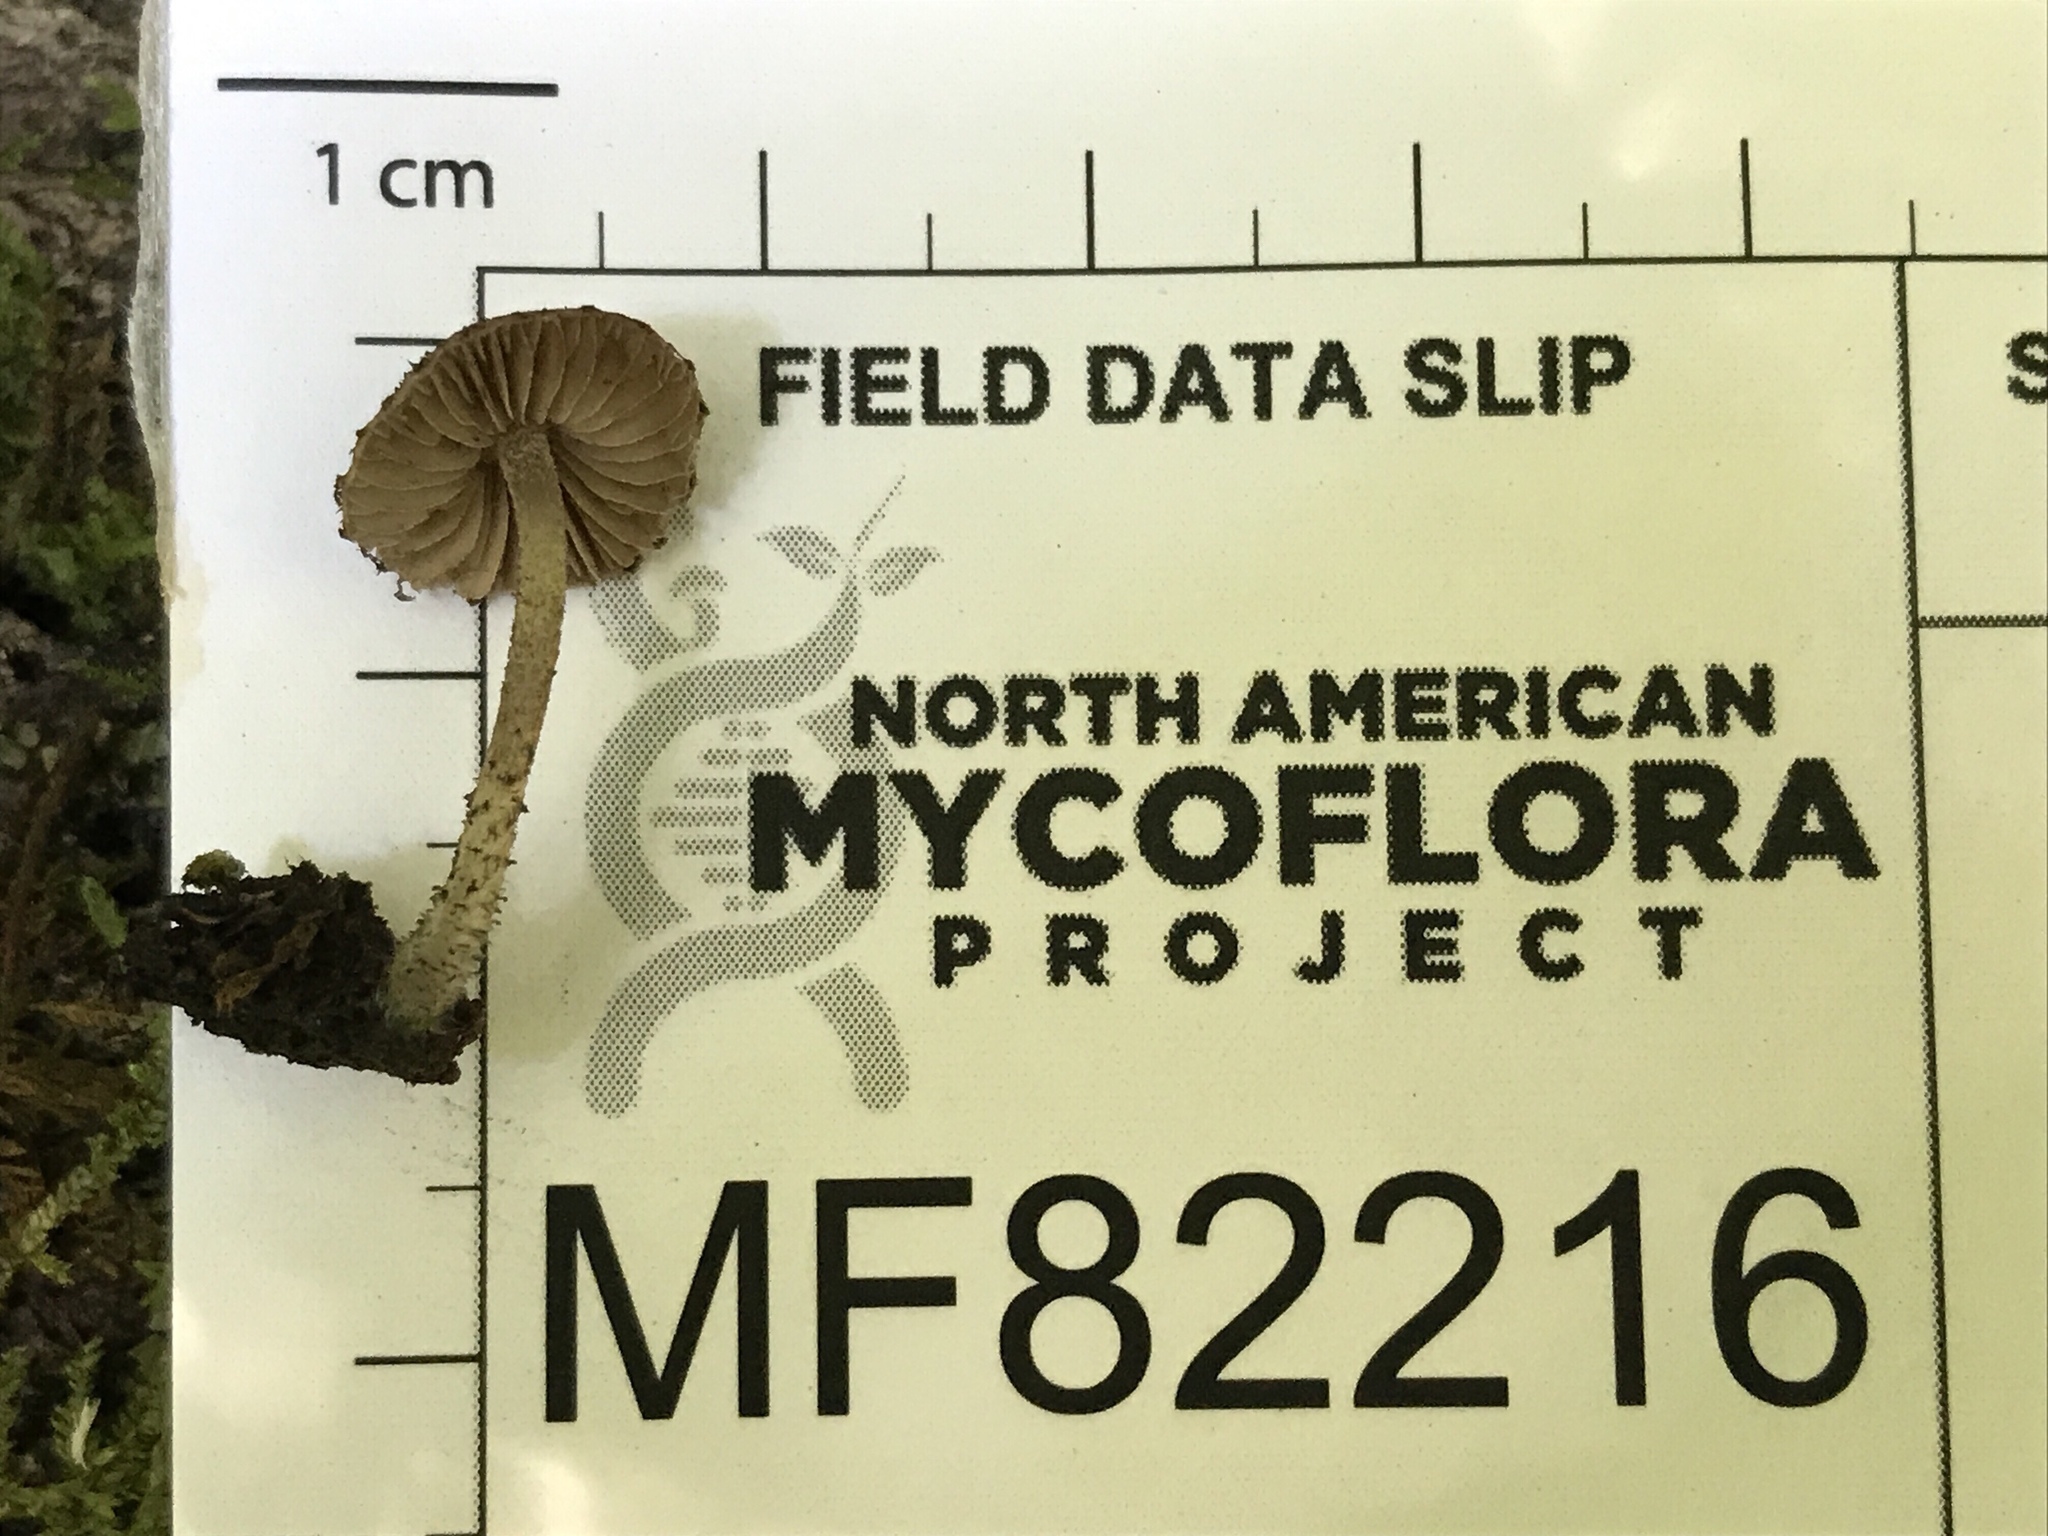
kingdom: Fungi
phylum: Basidiomycota
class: Agaricomycetes
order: Agaricales
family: Psathyrellaceae
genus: Cystoagaricus
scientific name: Cystoagaricus hirtosquamulosus
